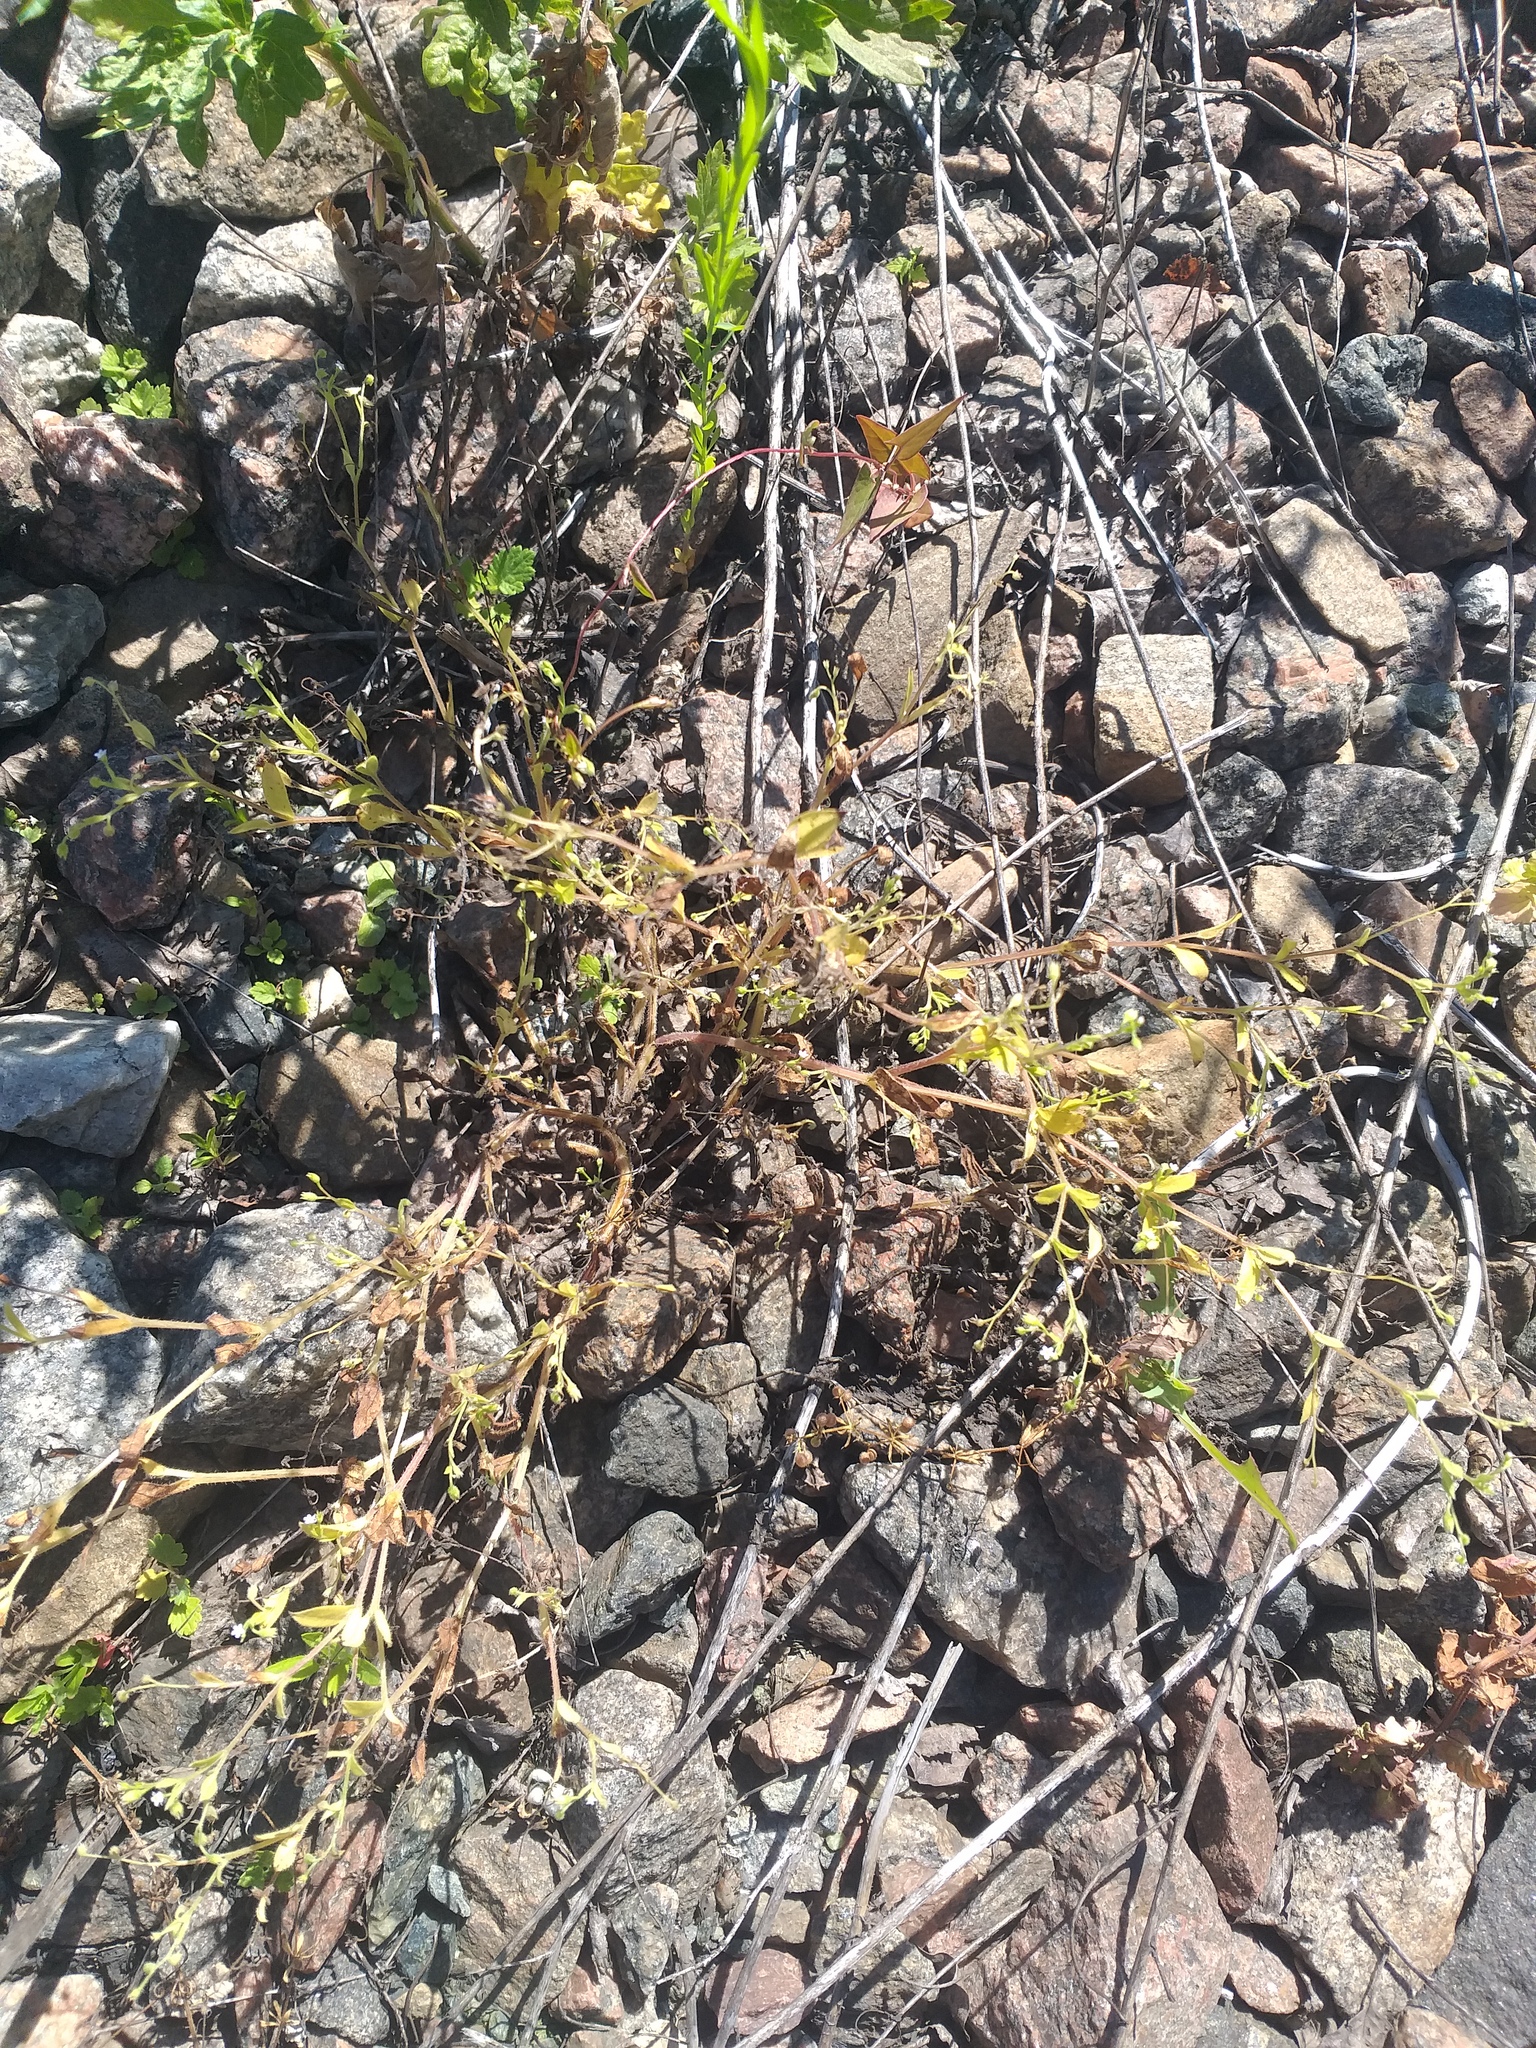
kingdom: Plantae
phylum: Tracheophyta
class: Magnoliopsida
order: Boraginales
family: Boraginaceae
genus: Myosotis
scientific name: Myosotis sparsiflora
